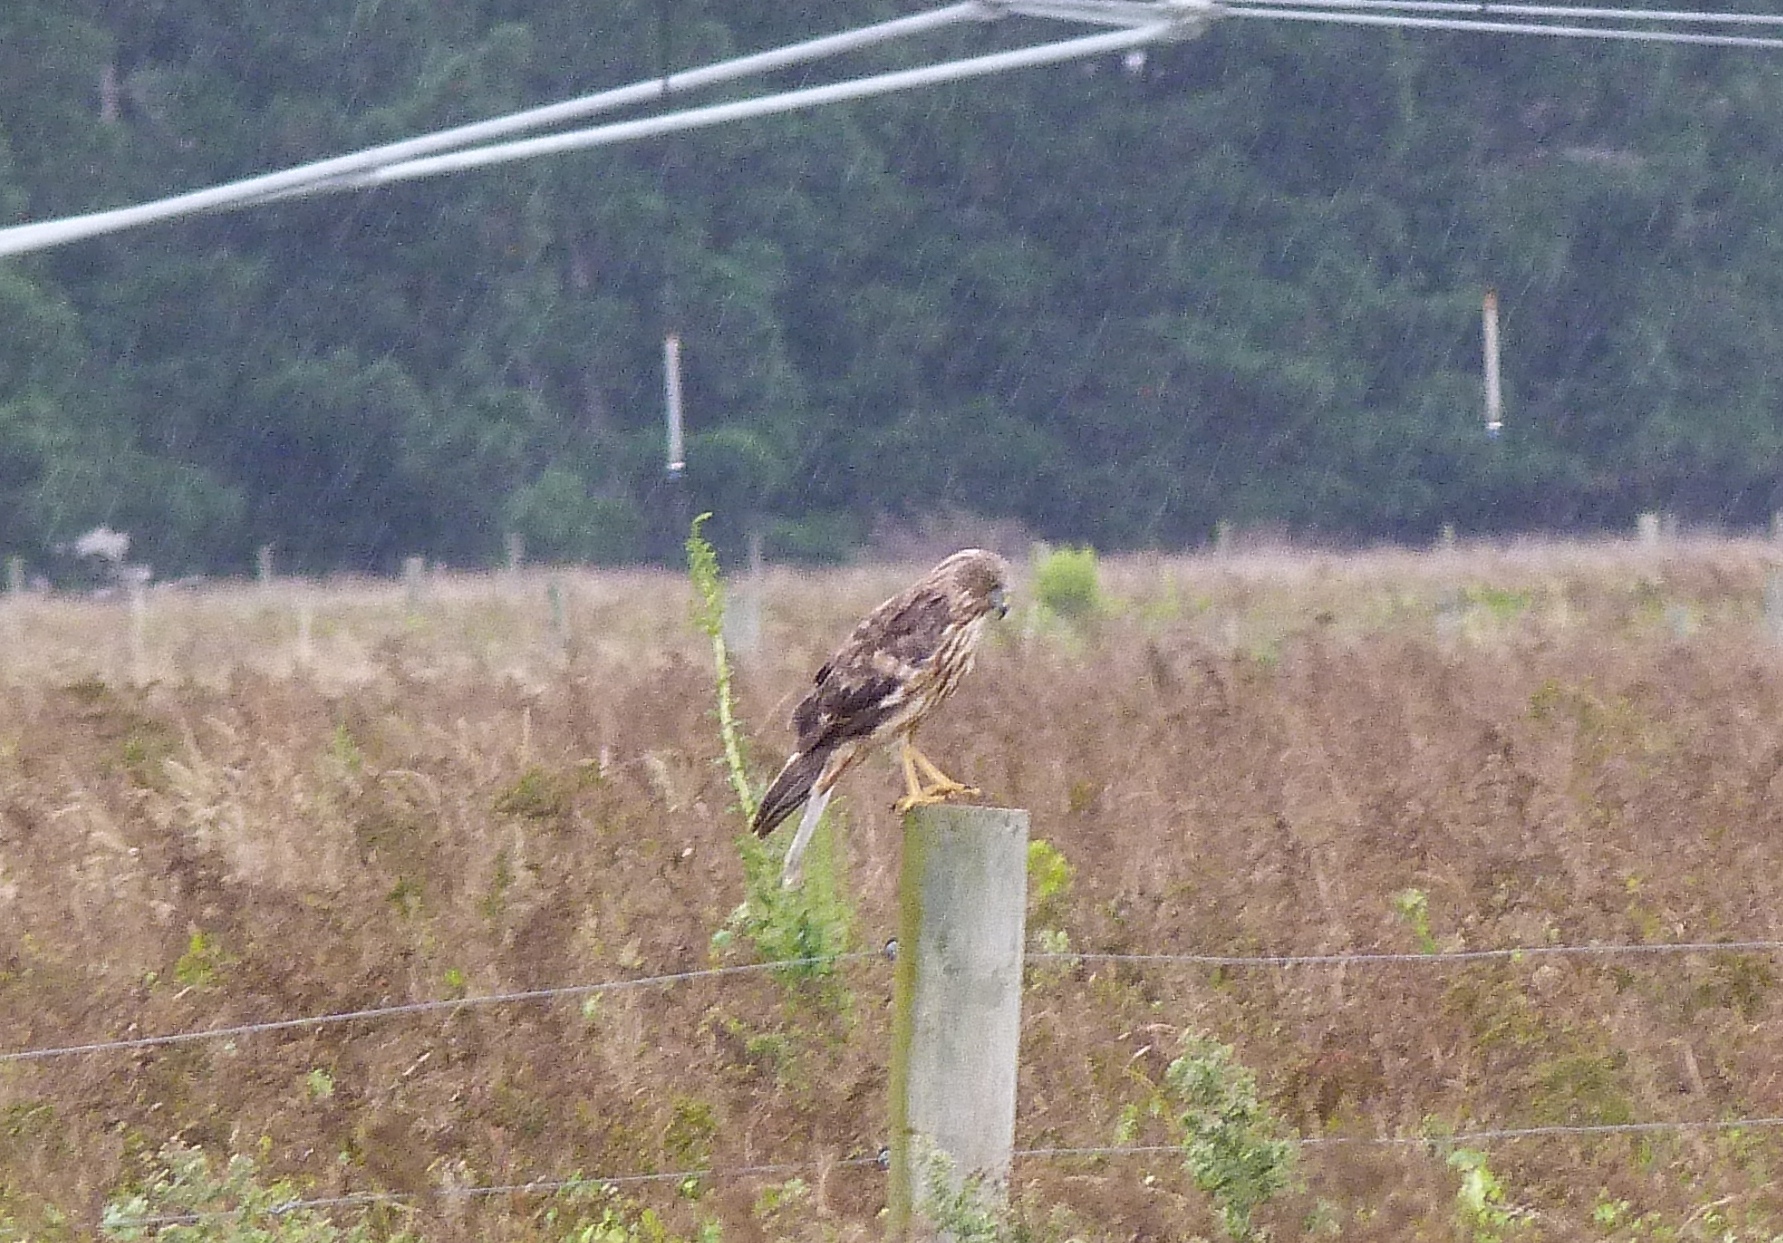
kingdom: Animalia
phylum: Chordata
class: Aves
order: Accipitriformes
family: Accipitridae
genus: Circus
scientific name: Circus approximans
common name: Swamp harrier
